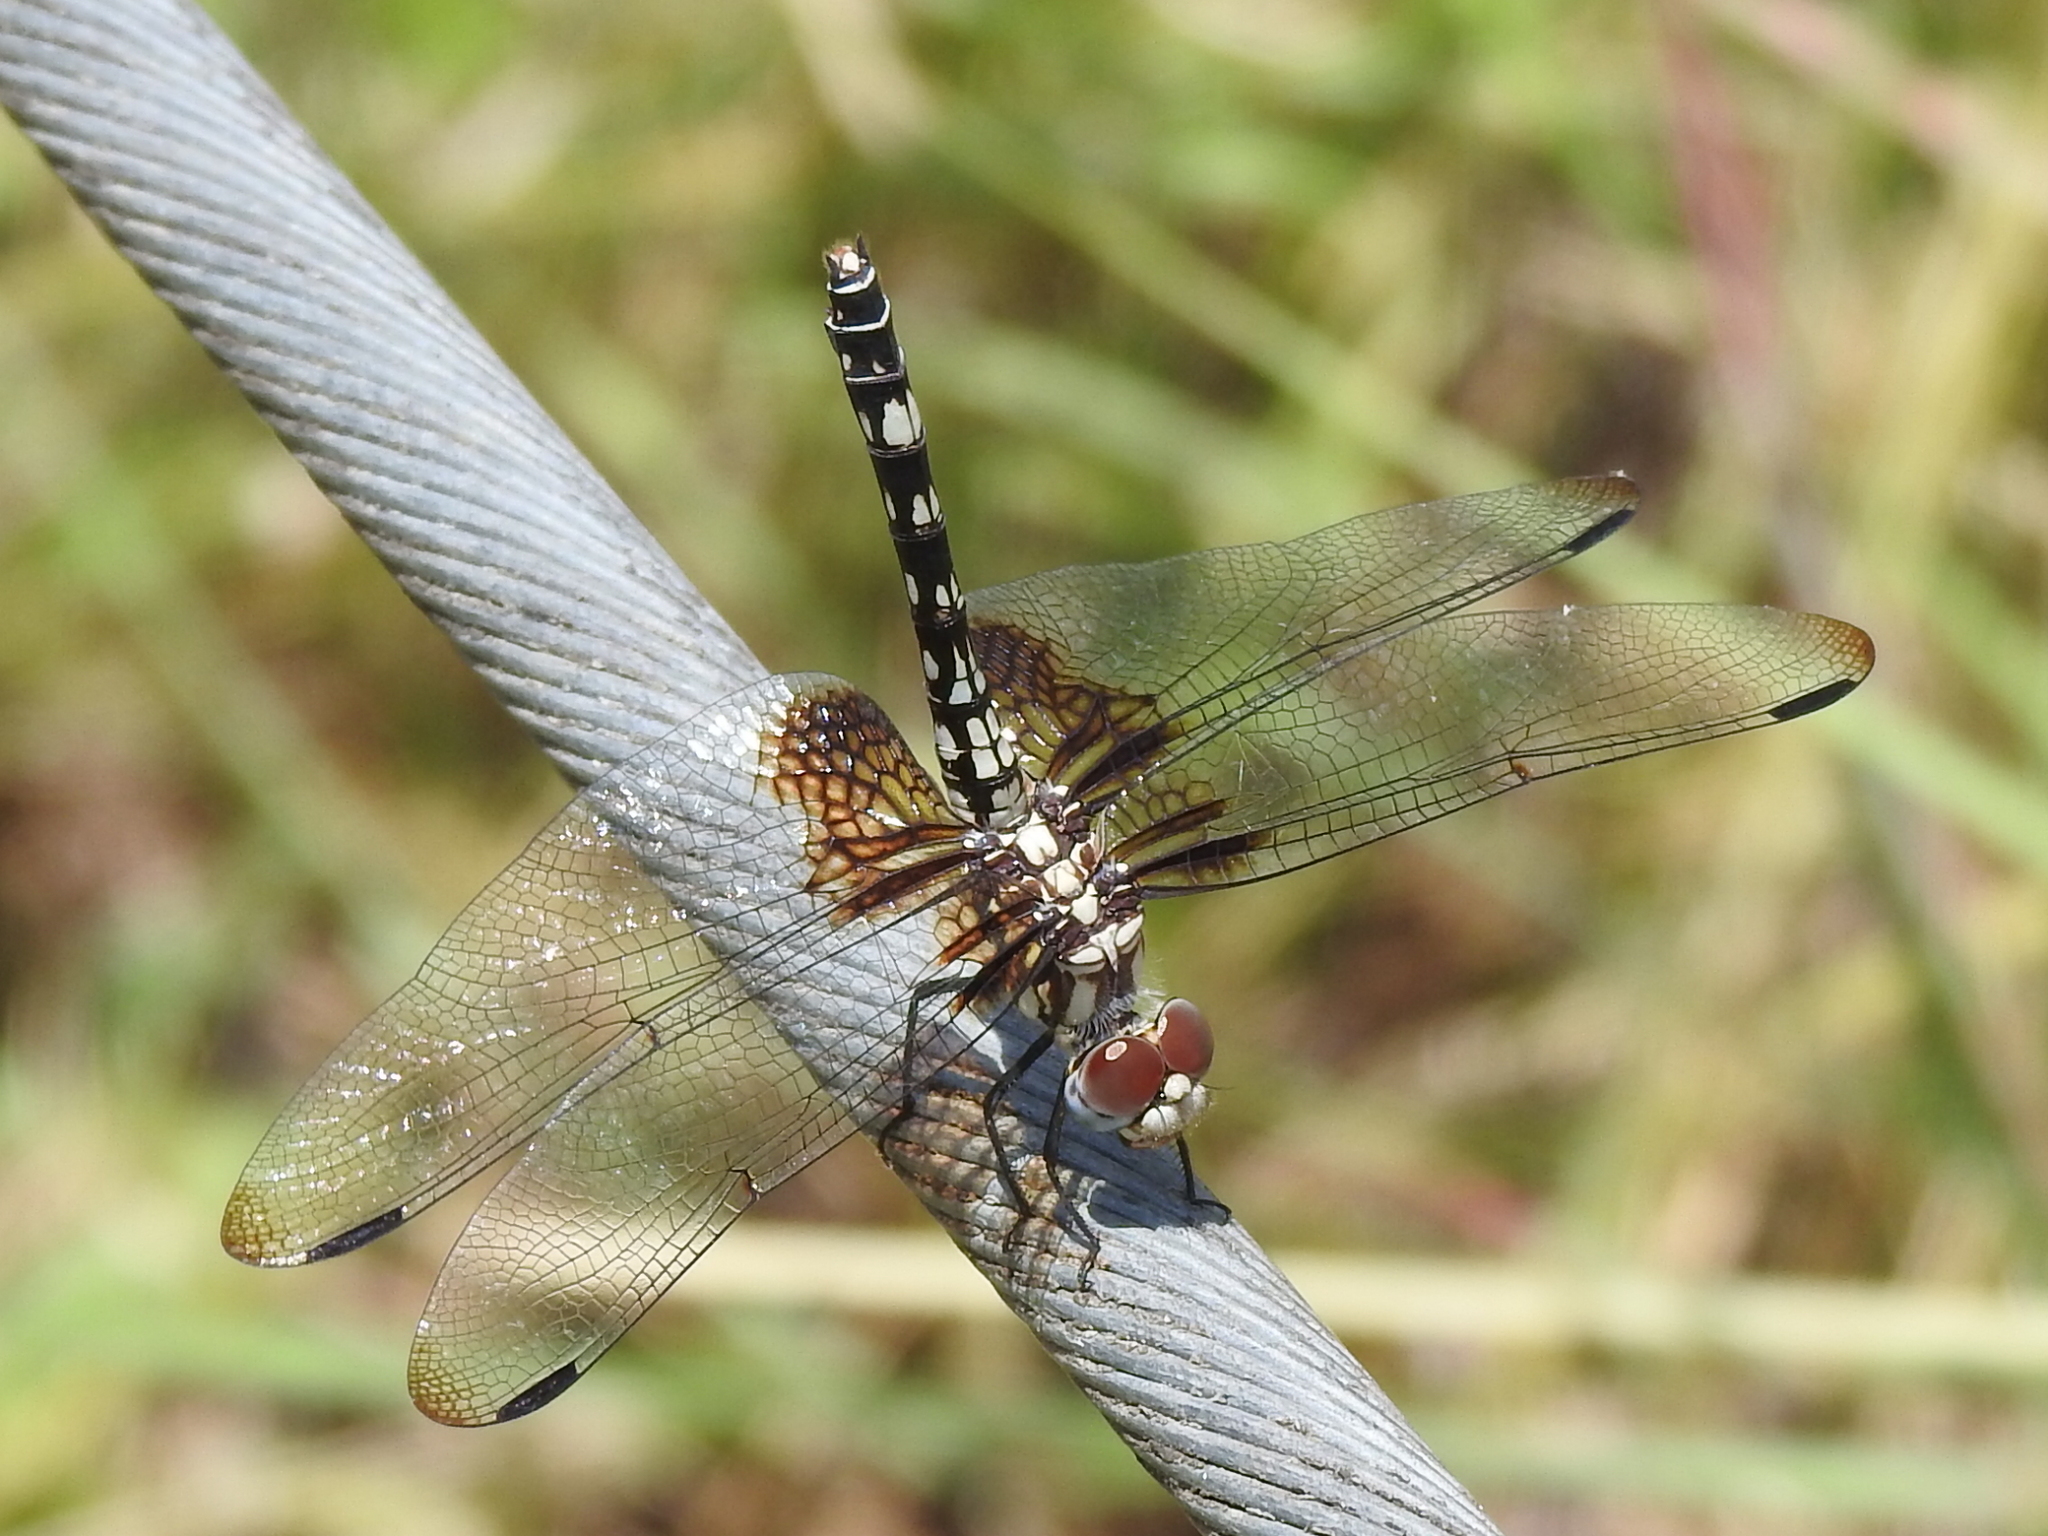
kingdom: Animalia
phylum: Arthropoda
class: Insecta
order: Odonata
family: Libellulidae
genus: Dythemis
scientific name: Dythemis fugax
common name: Checkered setwing
